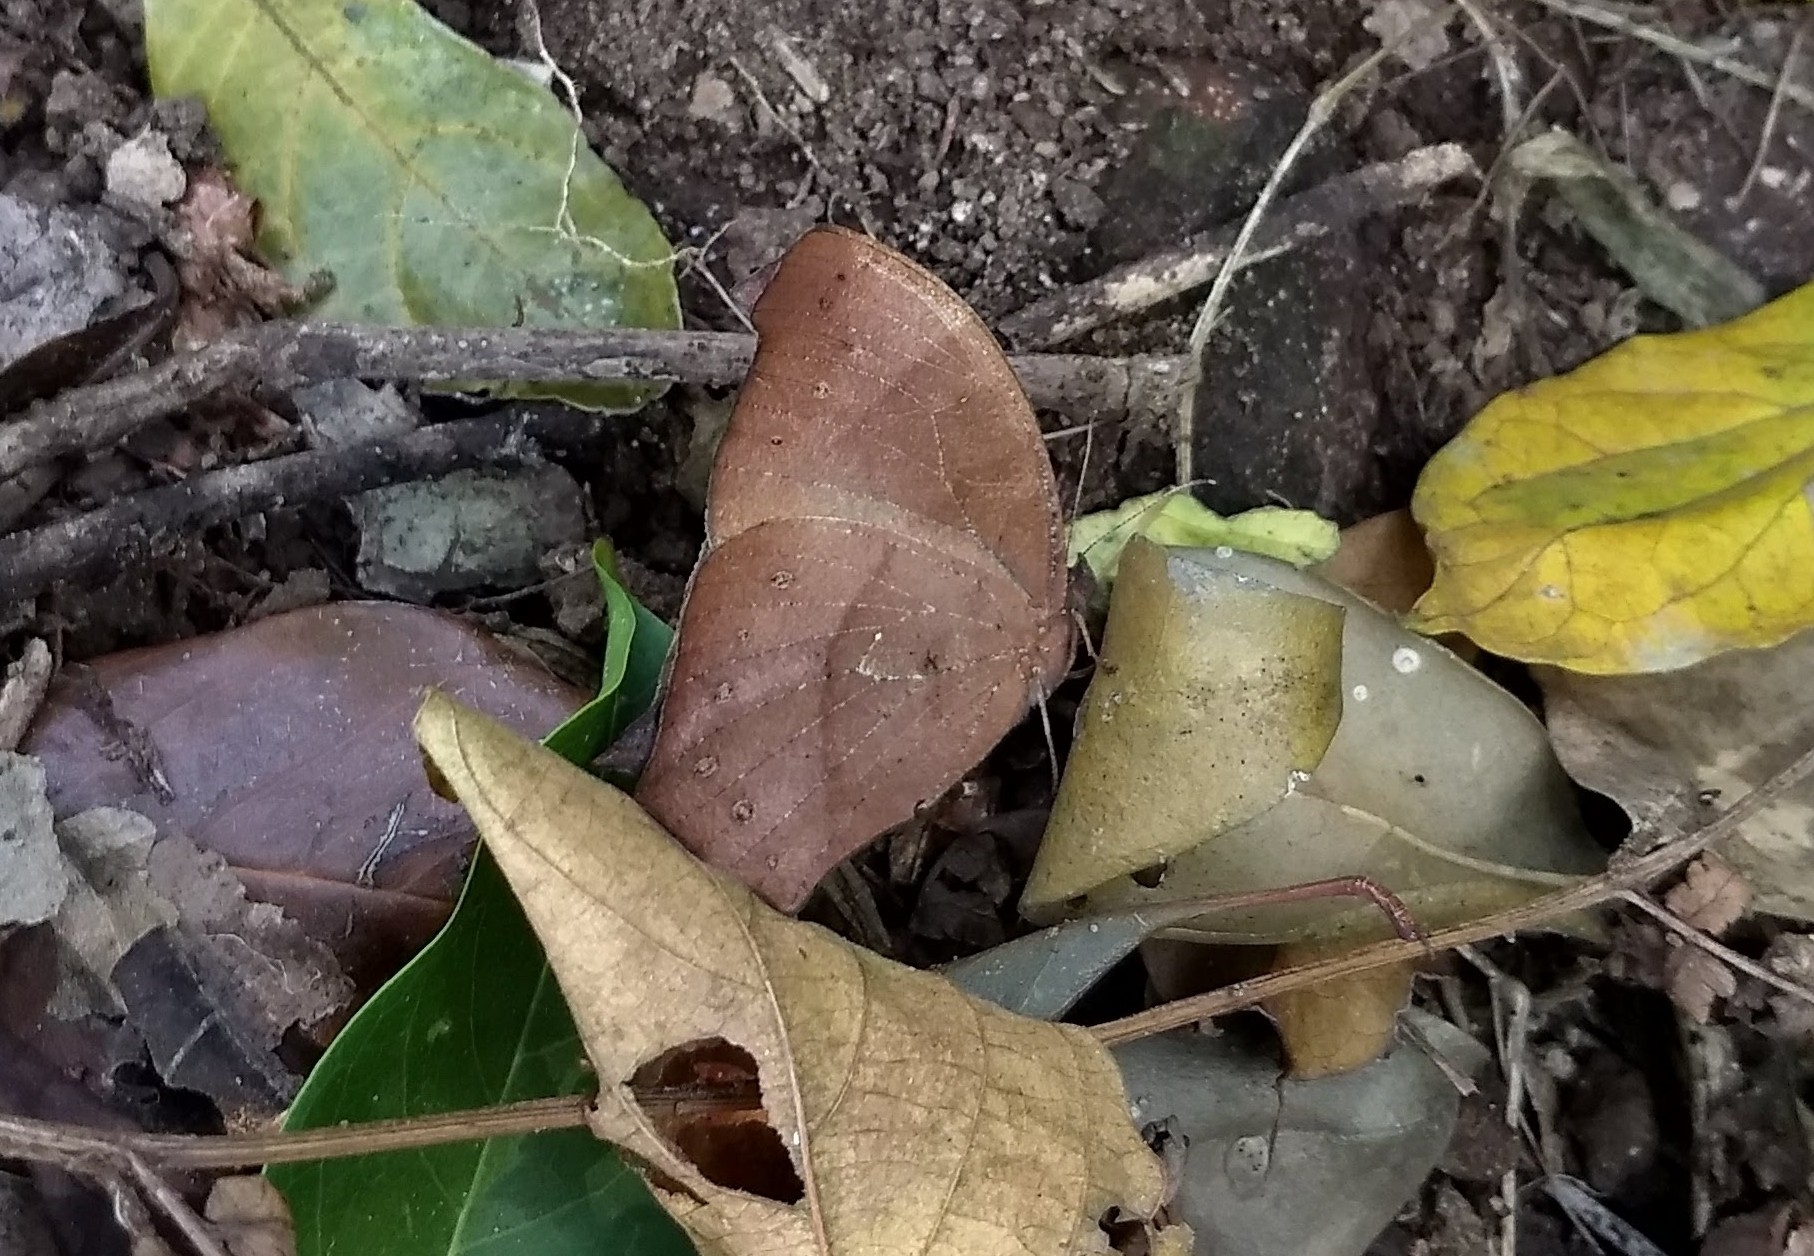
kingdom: Animalia
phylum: Arthropoda
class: Insecta
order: Lepidoptera
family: Nymphalidae
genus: Melanitis
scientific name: Melanitis phedima
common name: Dark evening brown
